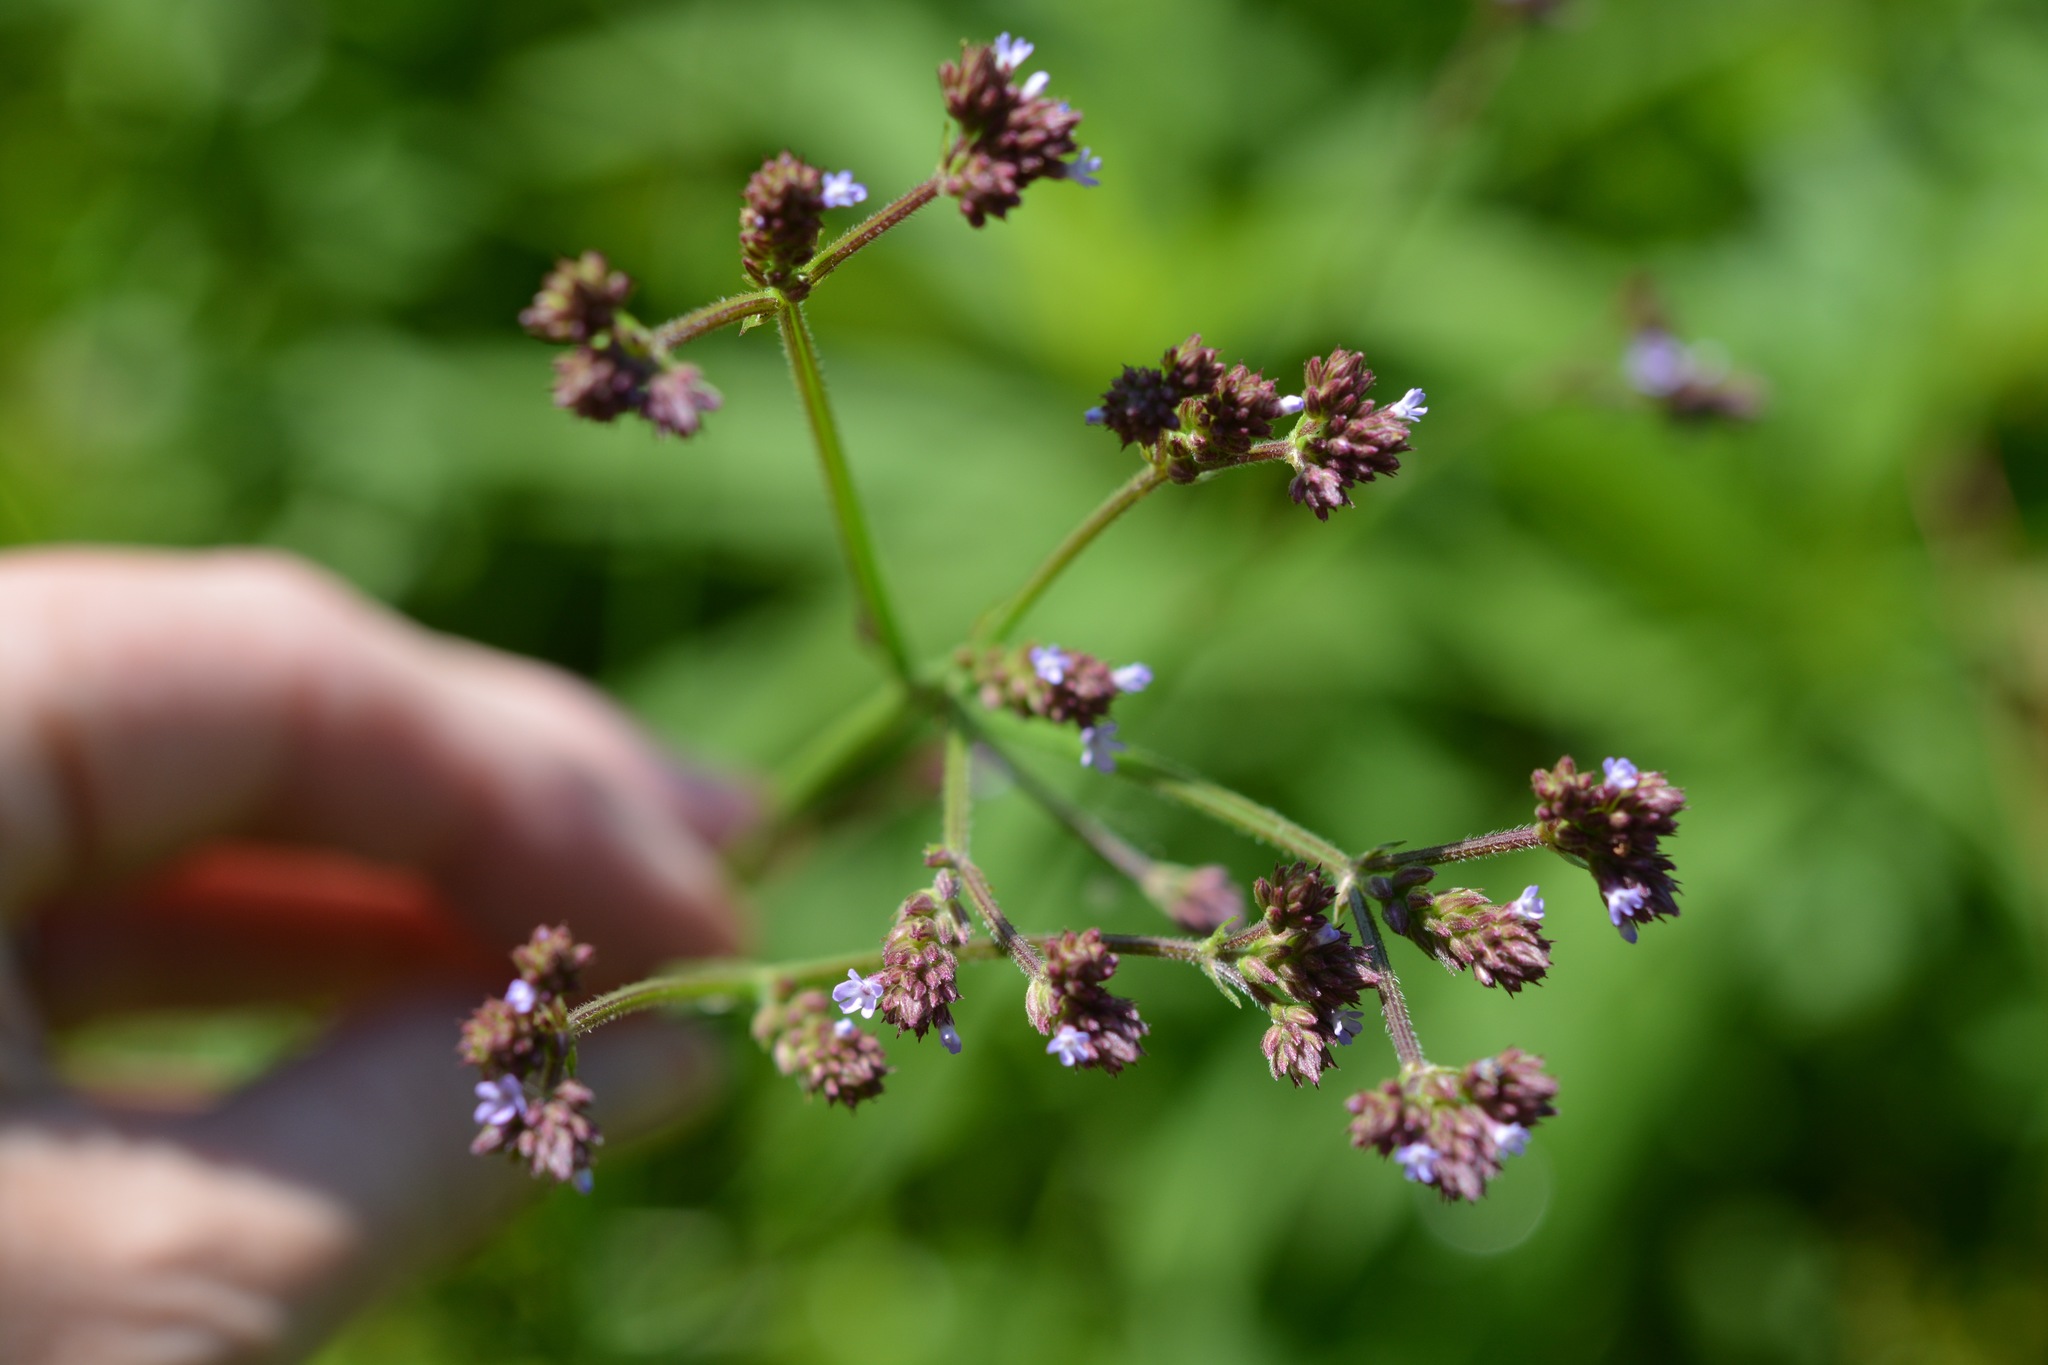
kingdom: Plantae
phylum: Tracheophyta
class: Magnoliopsida
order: Lamiales
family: Verbenaceae
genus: Verbena
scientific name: Verbena brasiliensis
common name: Brazilian vervain
